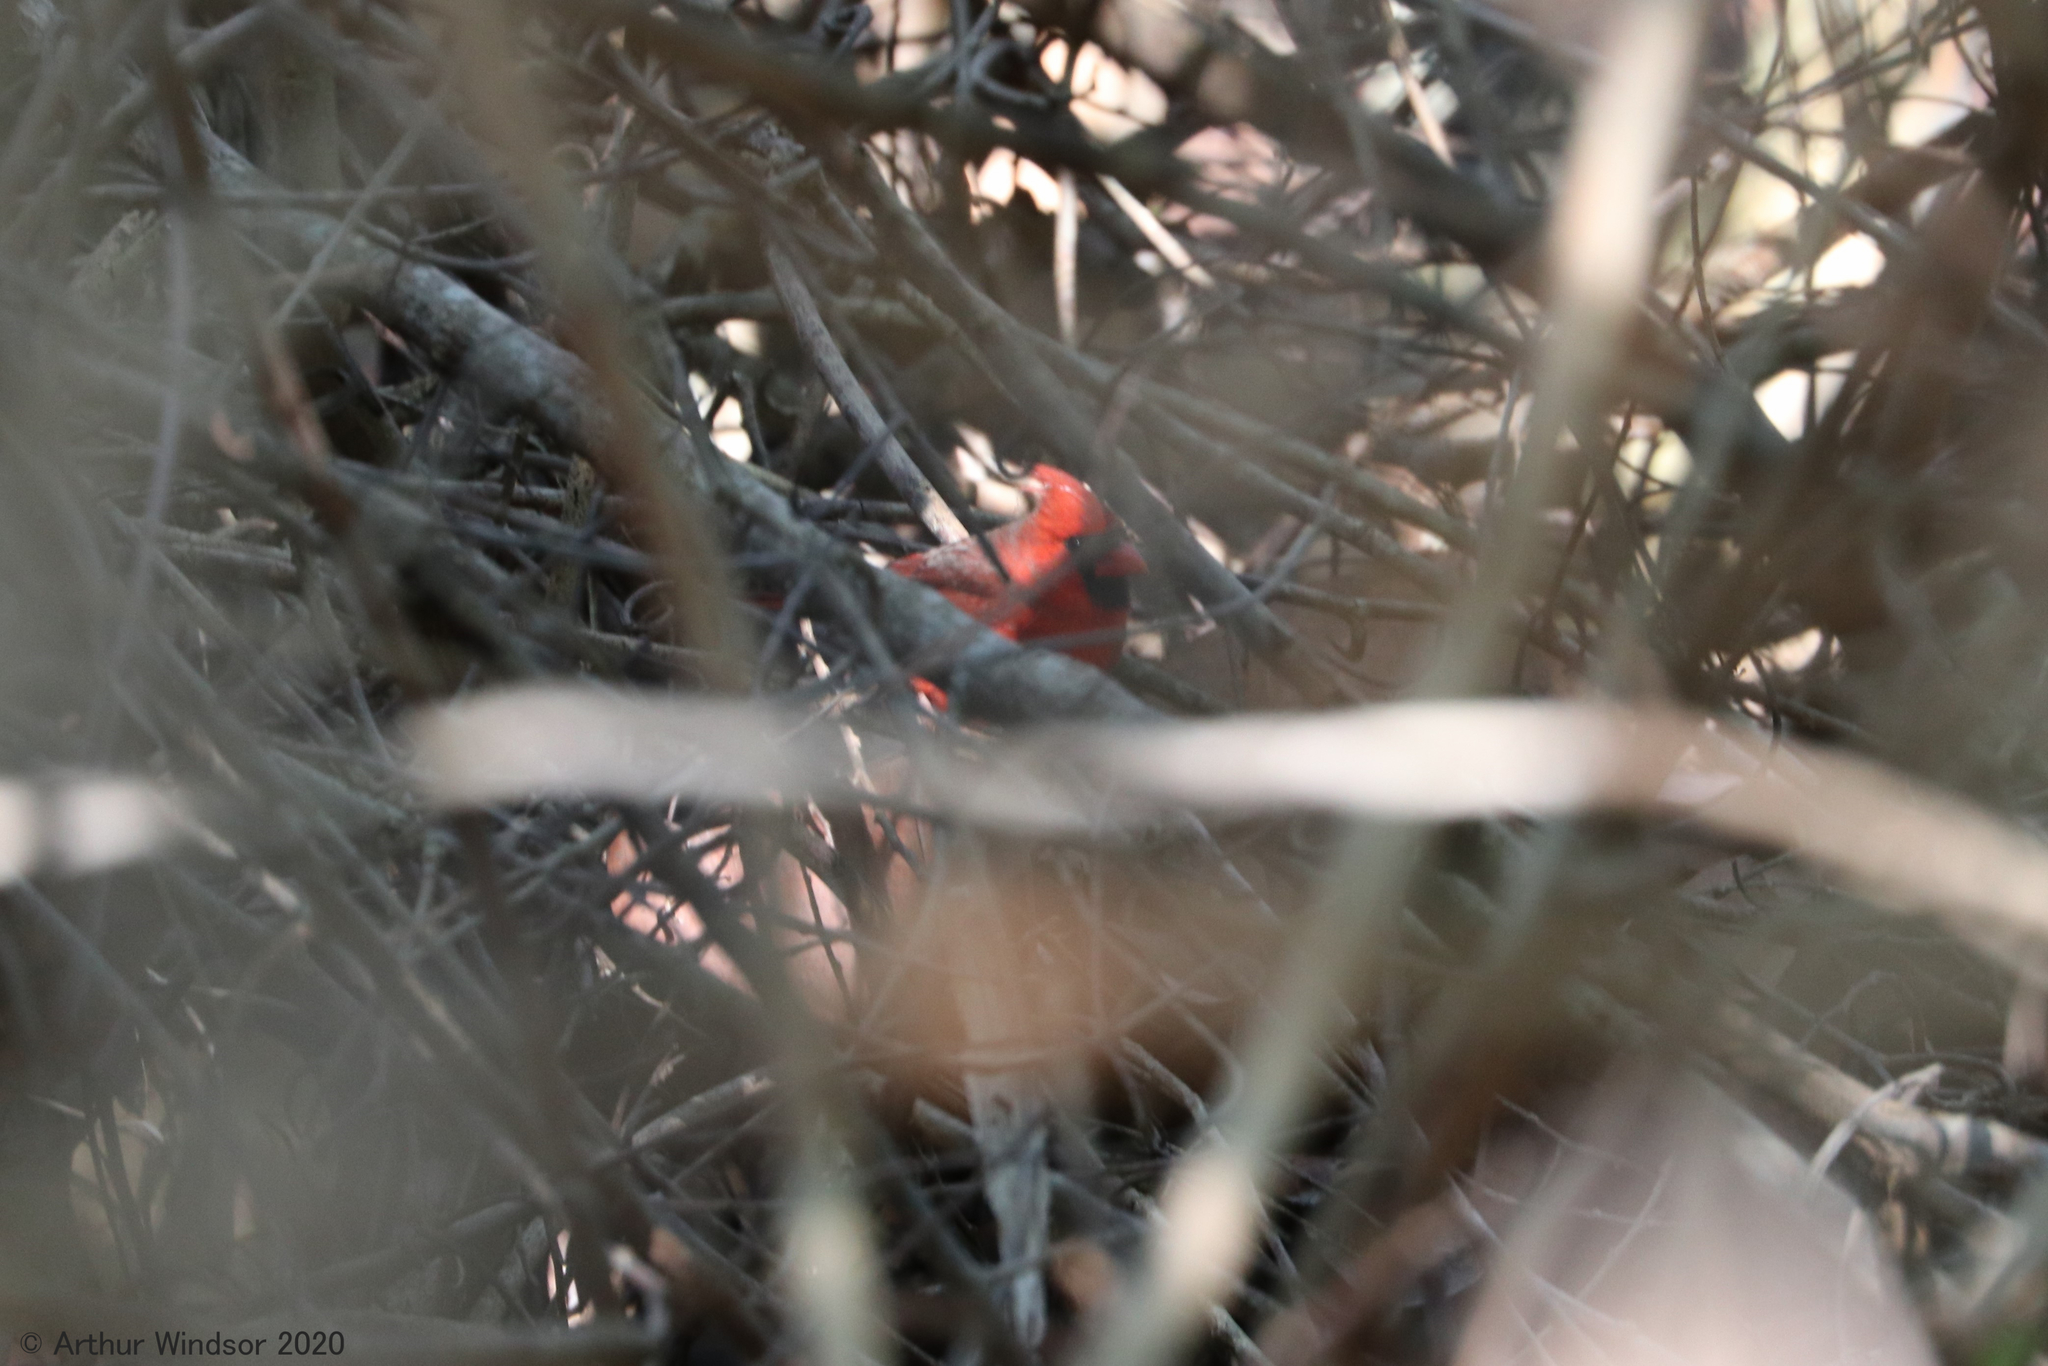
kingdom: Animalia
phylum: Chordata
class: Aves
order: Passeriformes
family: Cardinalidae
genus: Cardinalis
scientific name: Cardinalis cardinalis
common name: Northern cardinal
